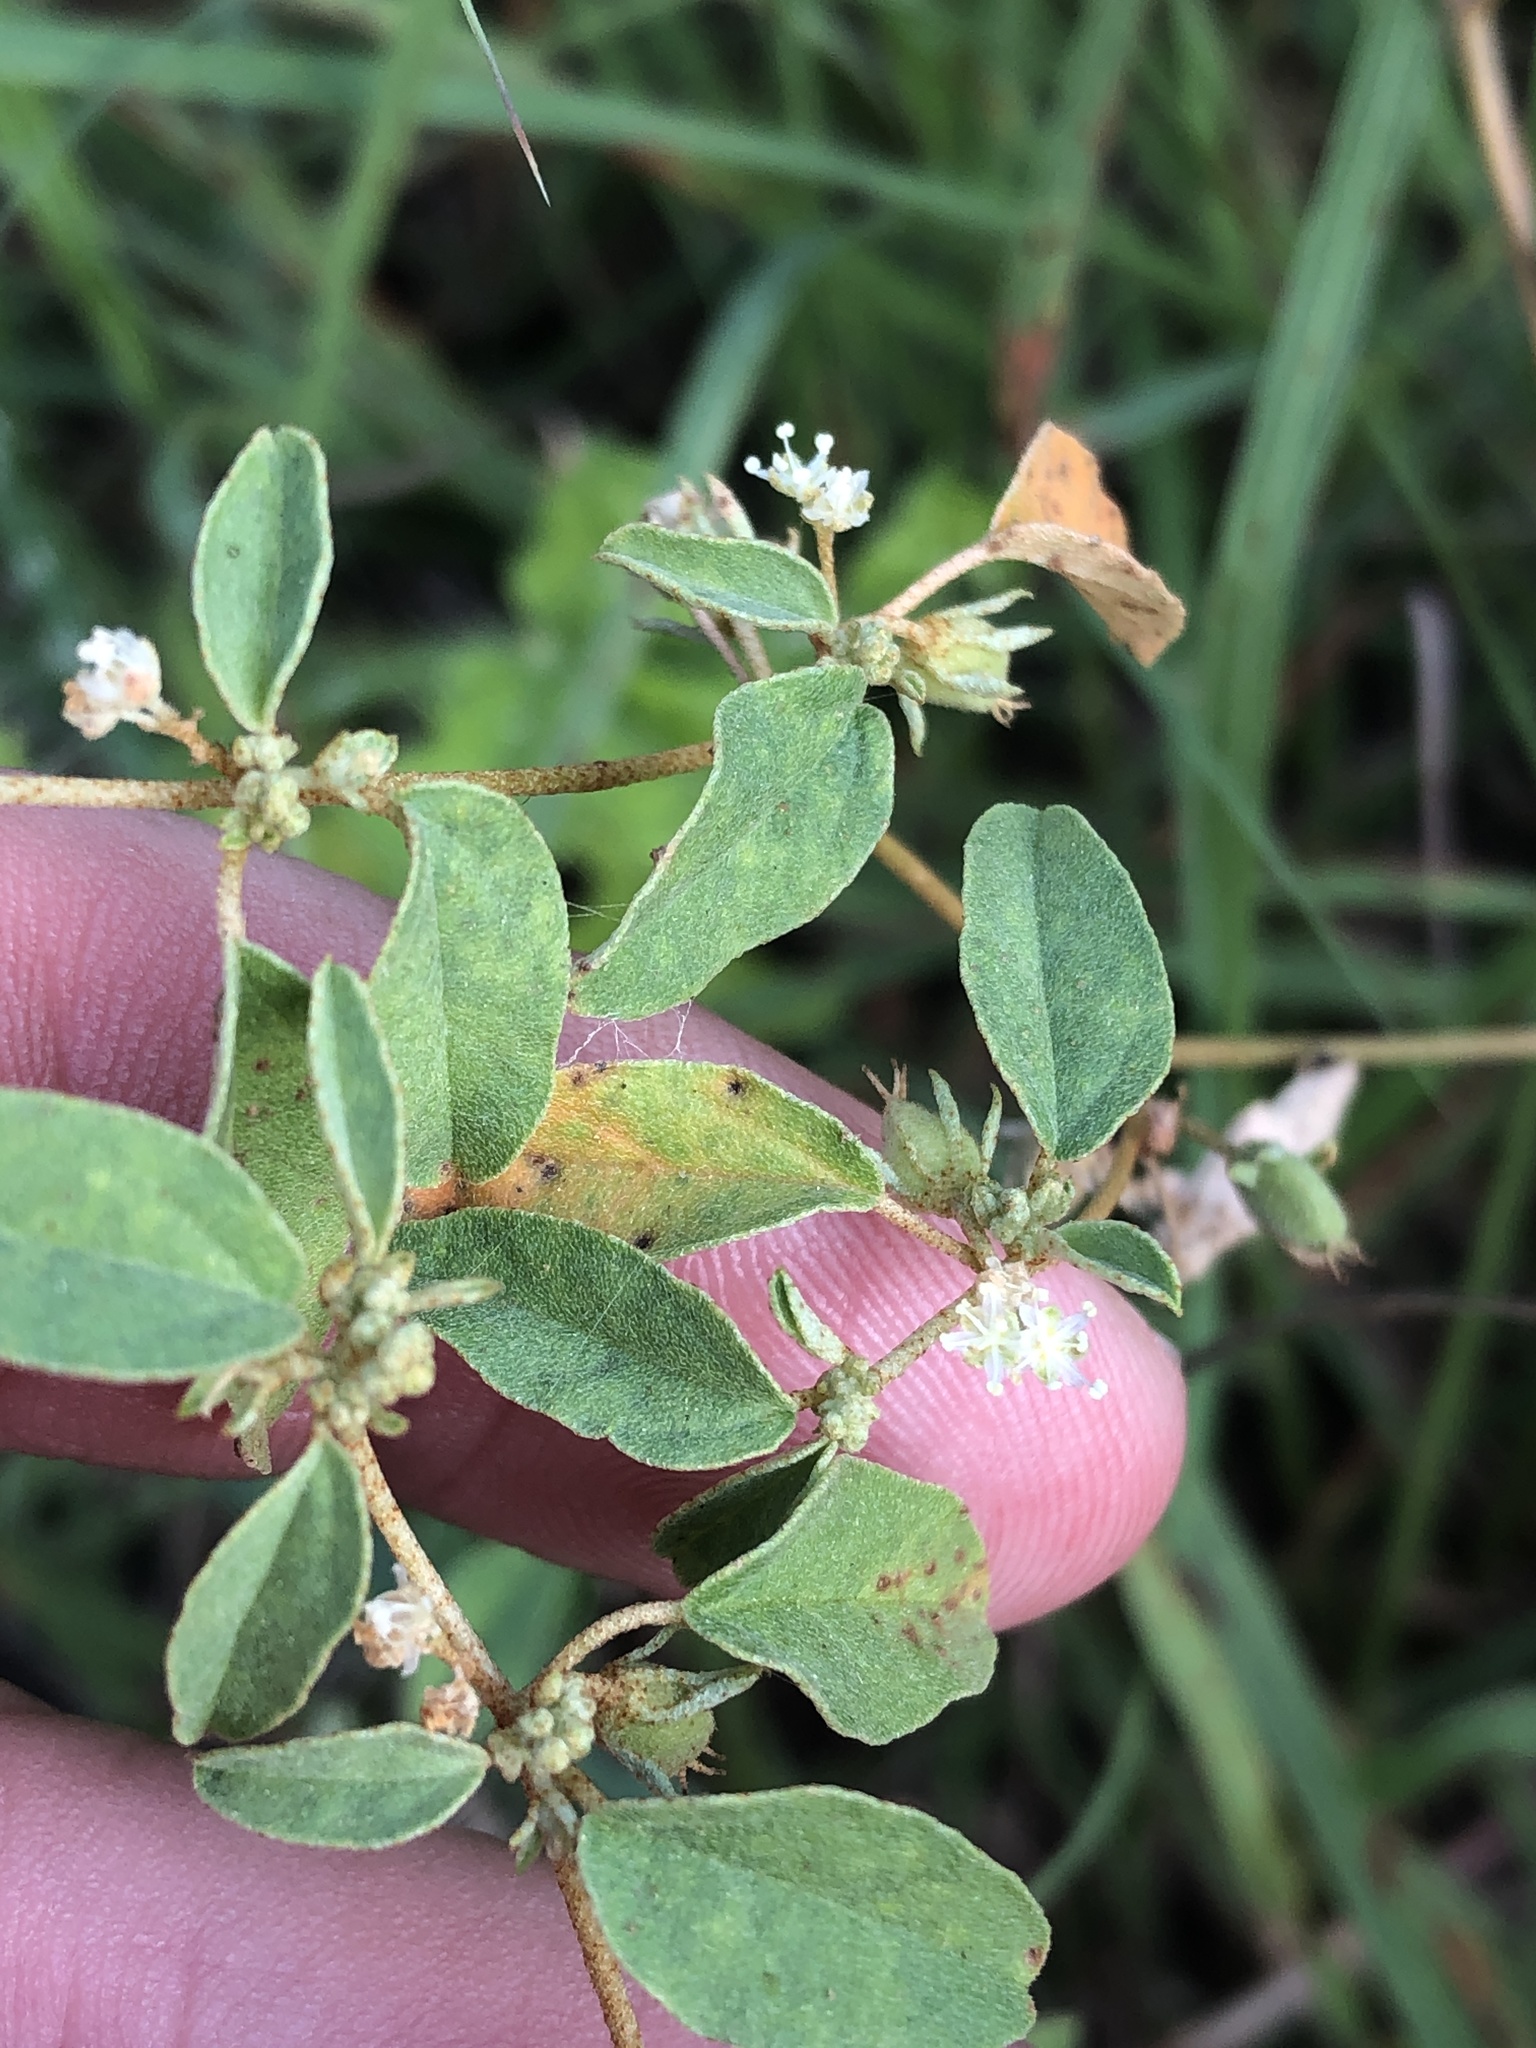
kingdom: Plantae
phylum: Tracheophyta
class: Magnoliopsida
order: Malpighiales
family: Euphorbiaceae
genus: Croton
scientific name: Croton monanthogynus
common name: One-seed croton
